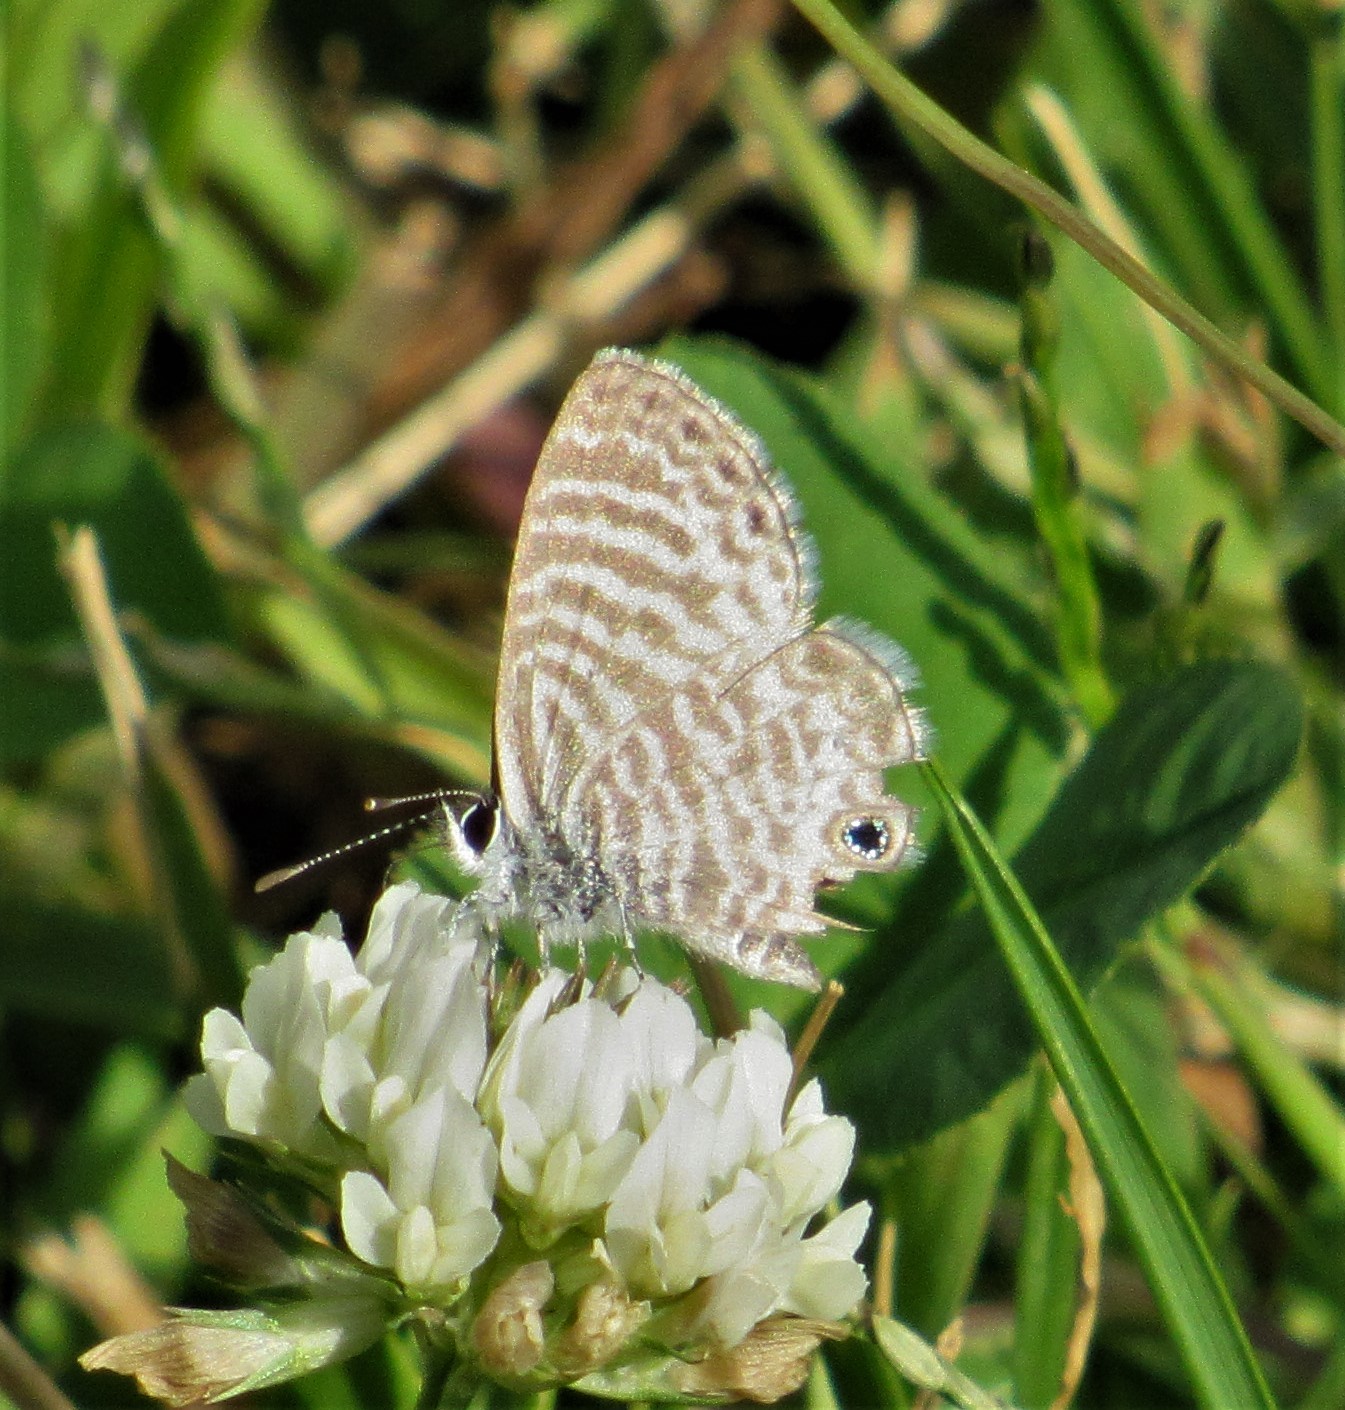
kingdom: Animalia
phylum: Arthropoda
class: Insecta
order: Lepidoptera
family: Lycaenidae
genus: Leptotes
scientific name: Leptotes marina
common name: Marine blue
